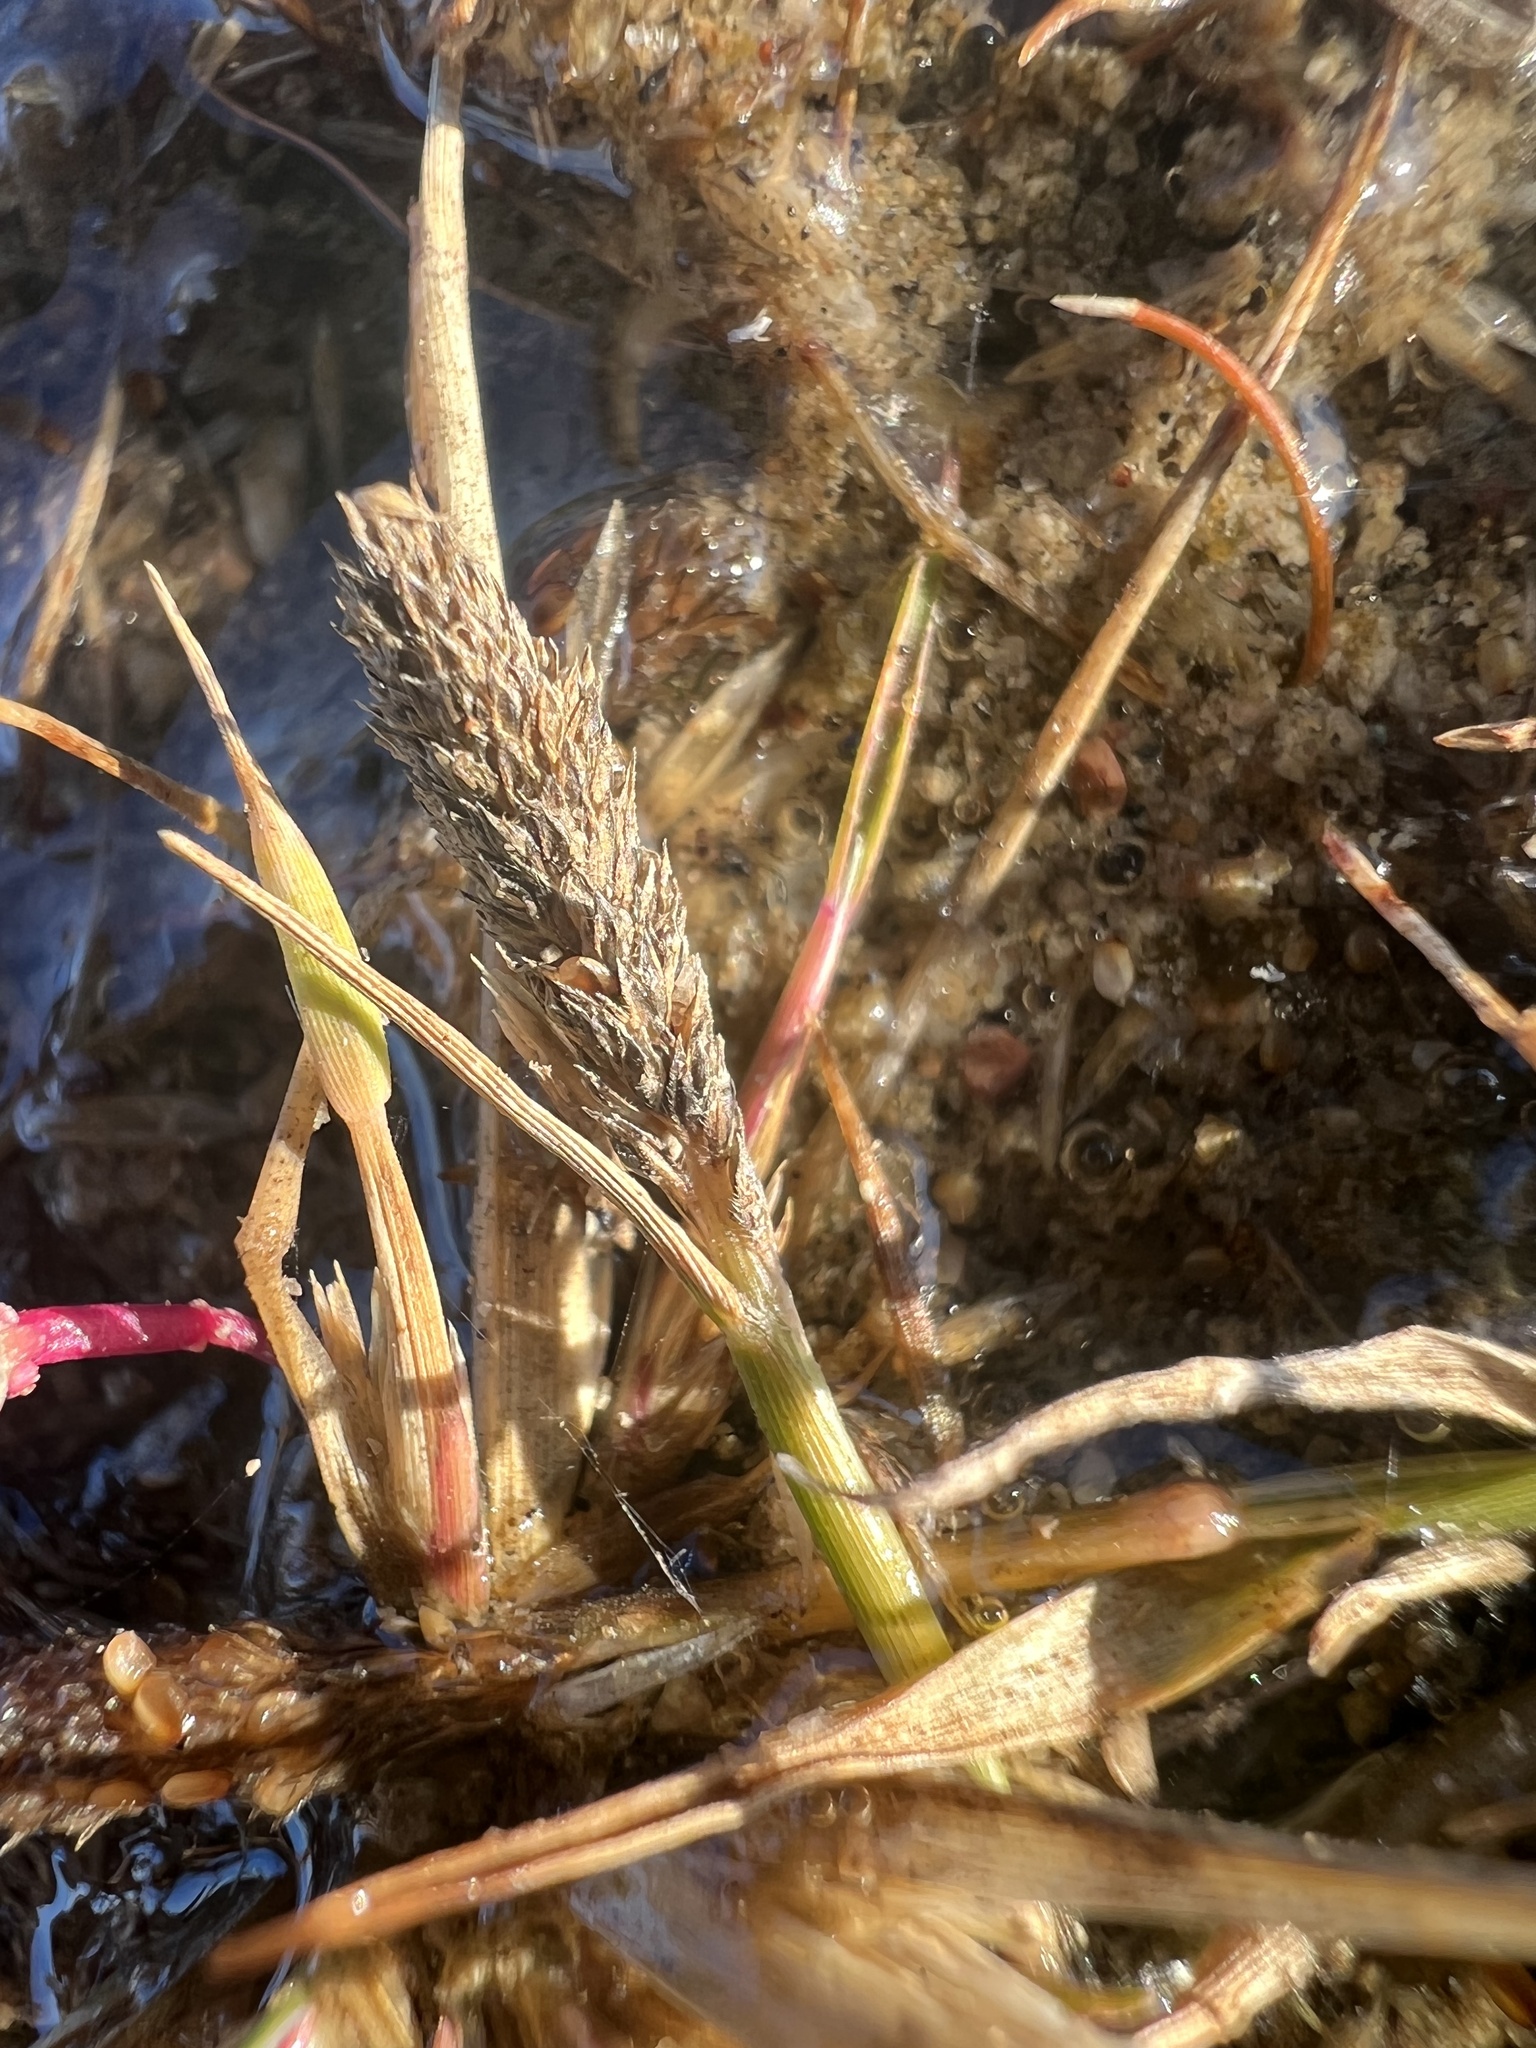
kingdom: Plantae
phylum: Tracheophyta
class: Liliopsida
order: Poales
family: Poaceae
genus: Sporobolus
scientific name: Sporobolus alopecuroides
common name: Foxtail pricklegrass
